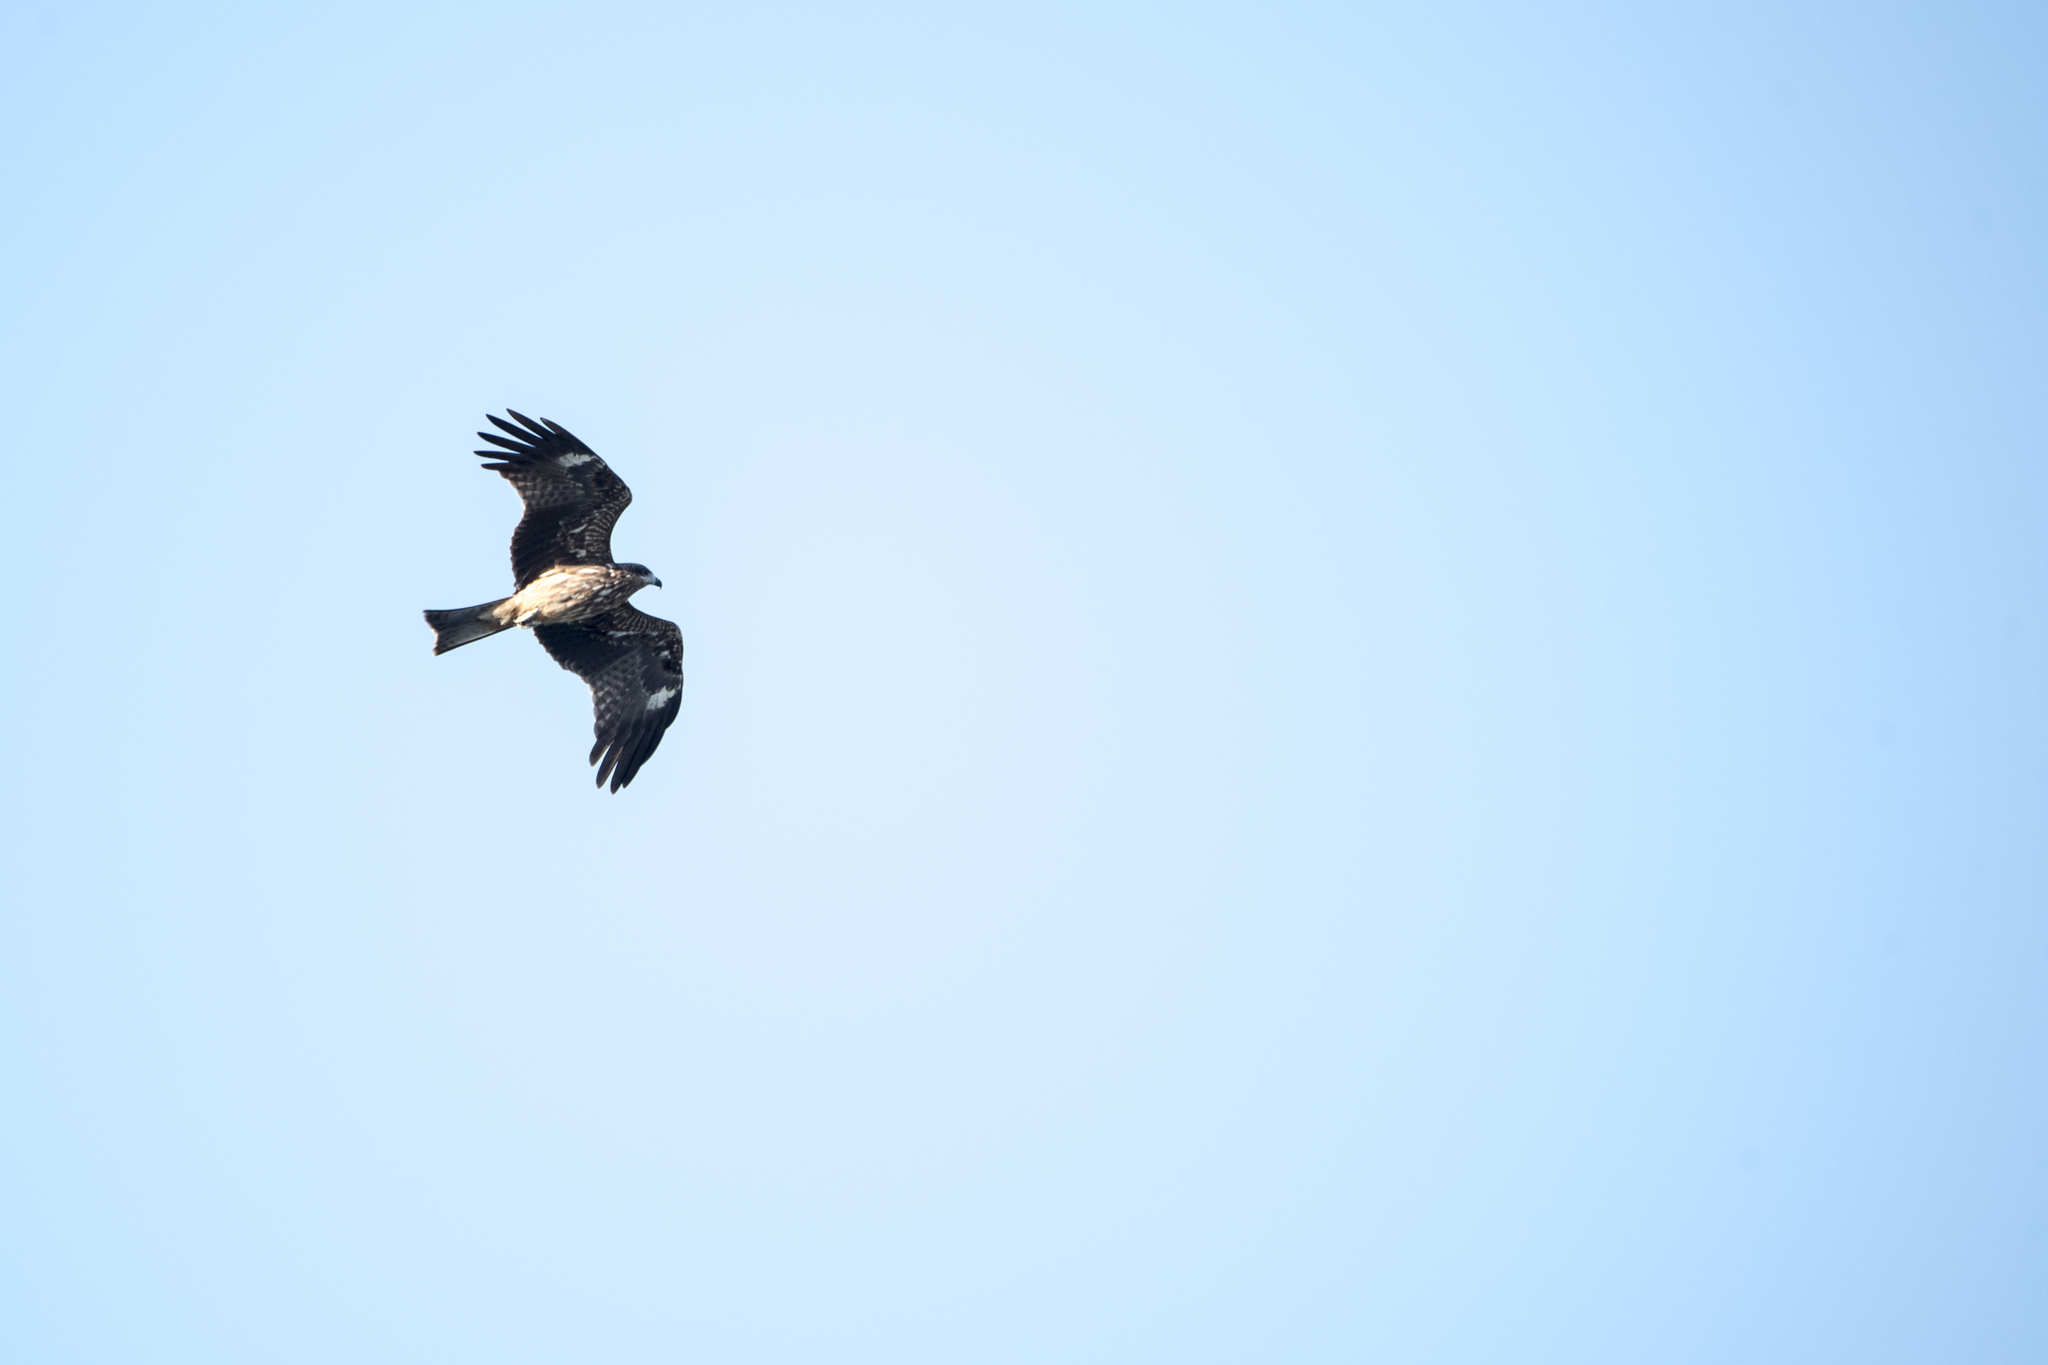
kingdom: Animalia
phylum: Chordata
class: Aves
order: Accipitriformes
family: Accipitridae
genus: Milvus
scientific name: Milvus migrans
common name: Black kite
